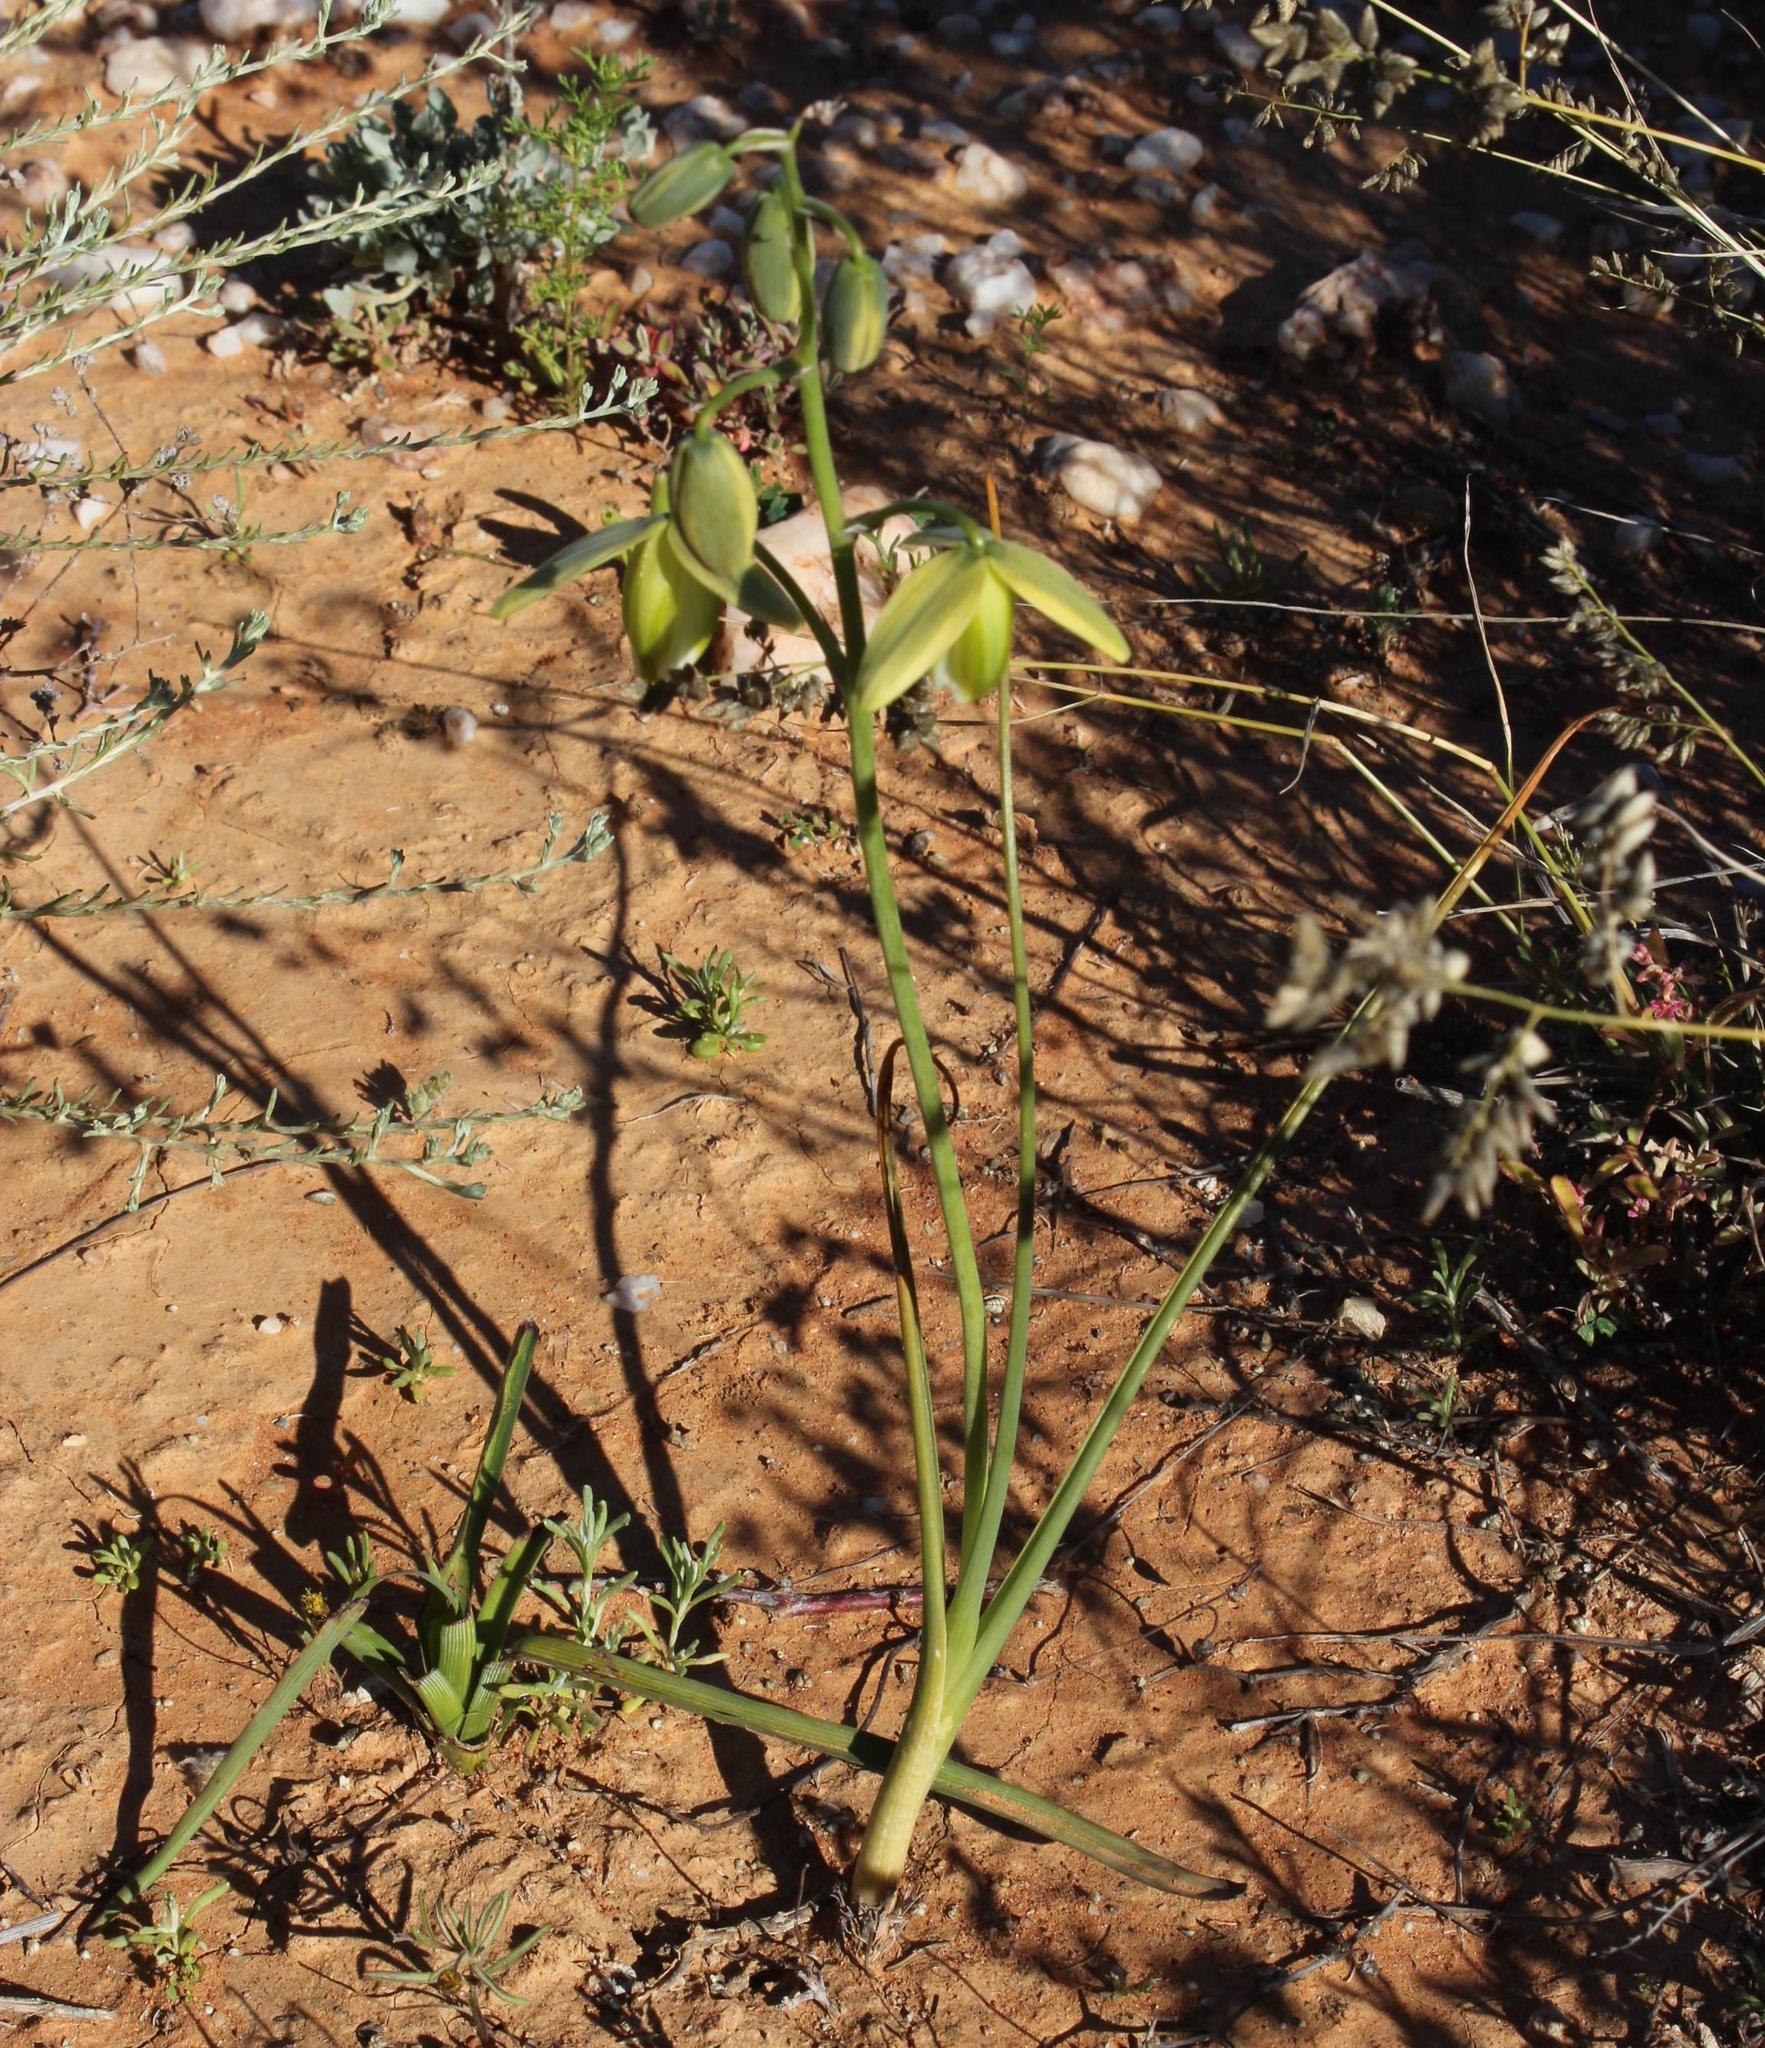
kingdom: Plantae
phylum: Tracheophyta
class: Liliopsida
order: Asparagales
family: Asparagaceae
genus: Albuca
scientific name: Albuca cooperi
